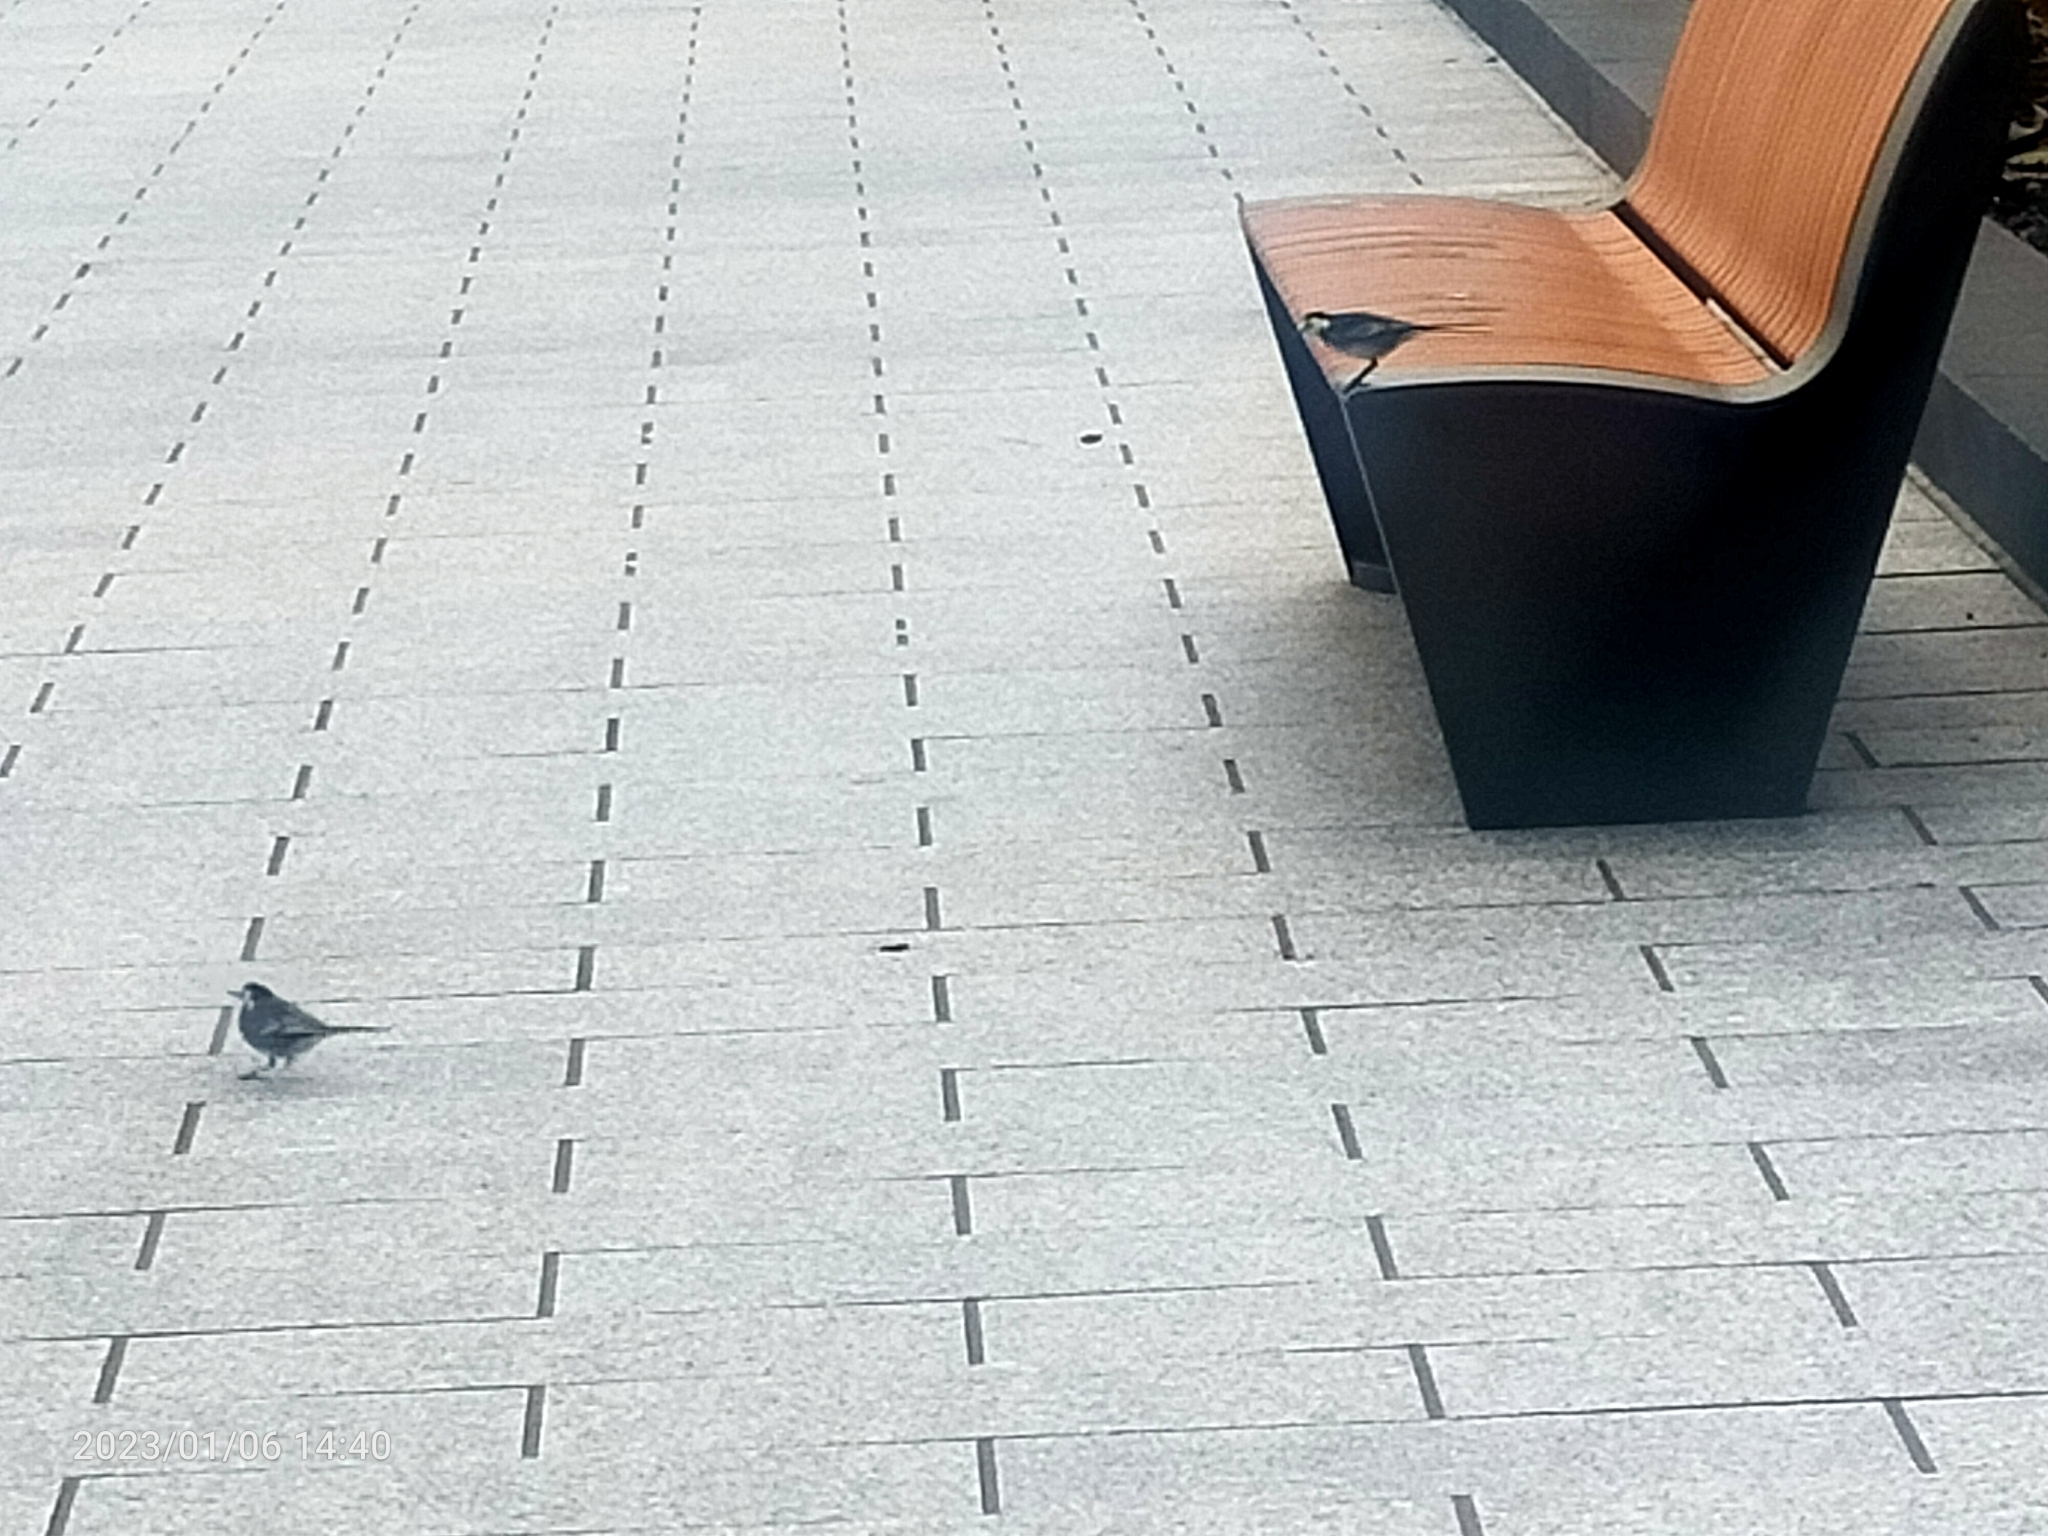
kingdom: Animalia
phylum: Chordata
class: Aves
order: Passeriformes
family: Motacillidae
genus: Motacilla
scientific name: Motacilla alba
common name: White wagtail
